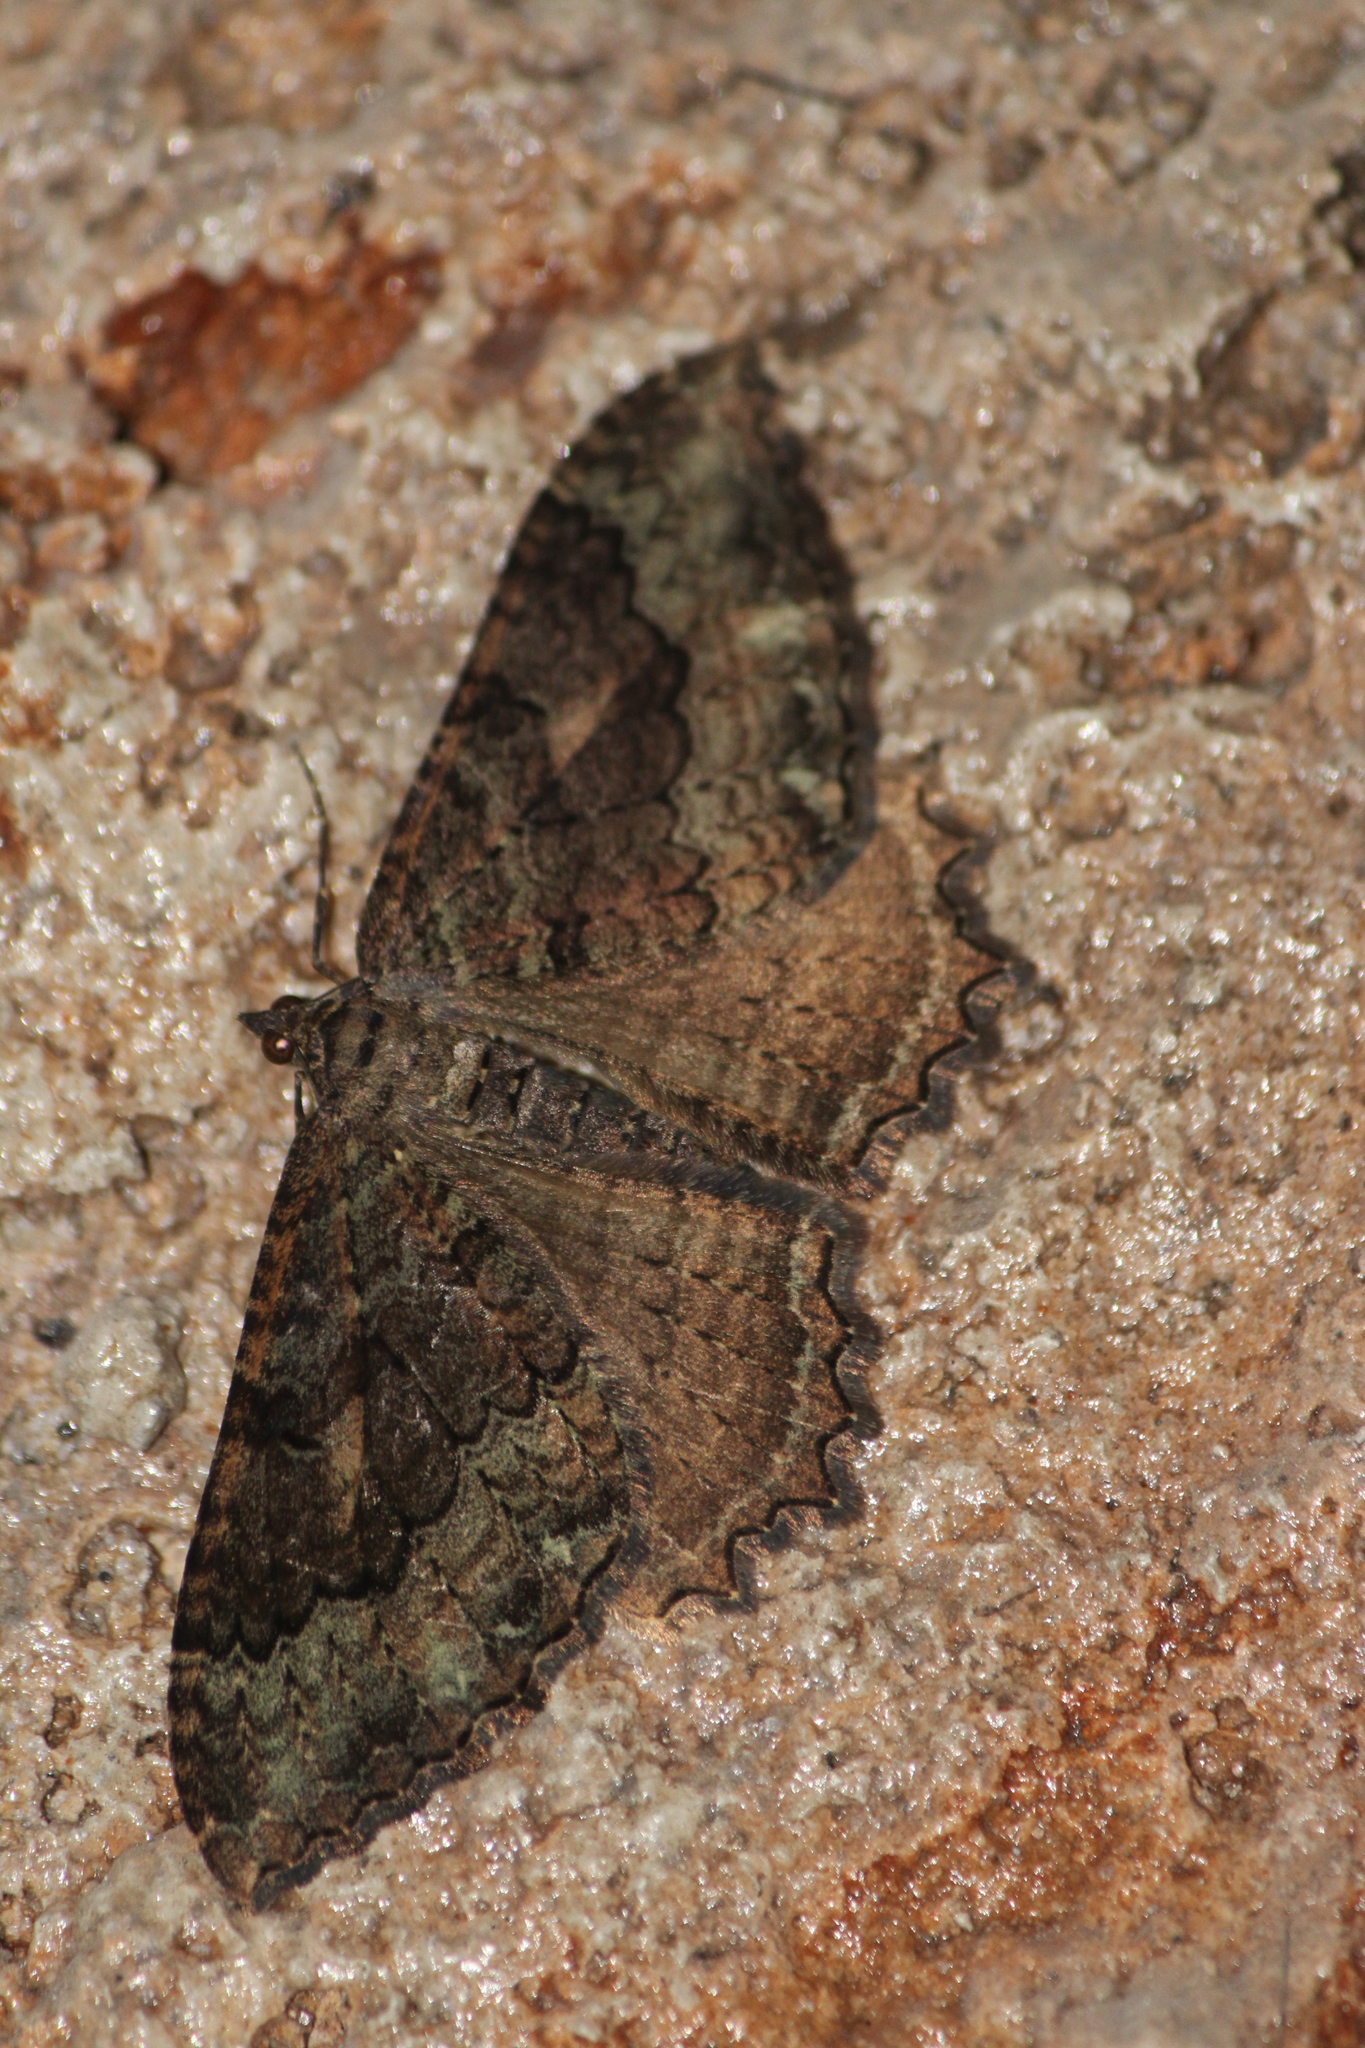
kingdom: Animalia
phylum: Arthropoda
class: Insecta
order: Lepidoptera
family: Geometridae
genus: Rheumaptera
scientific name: Rheumaptera
